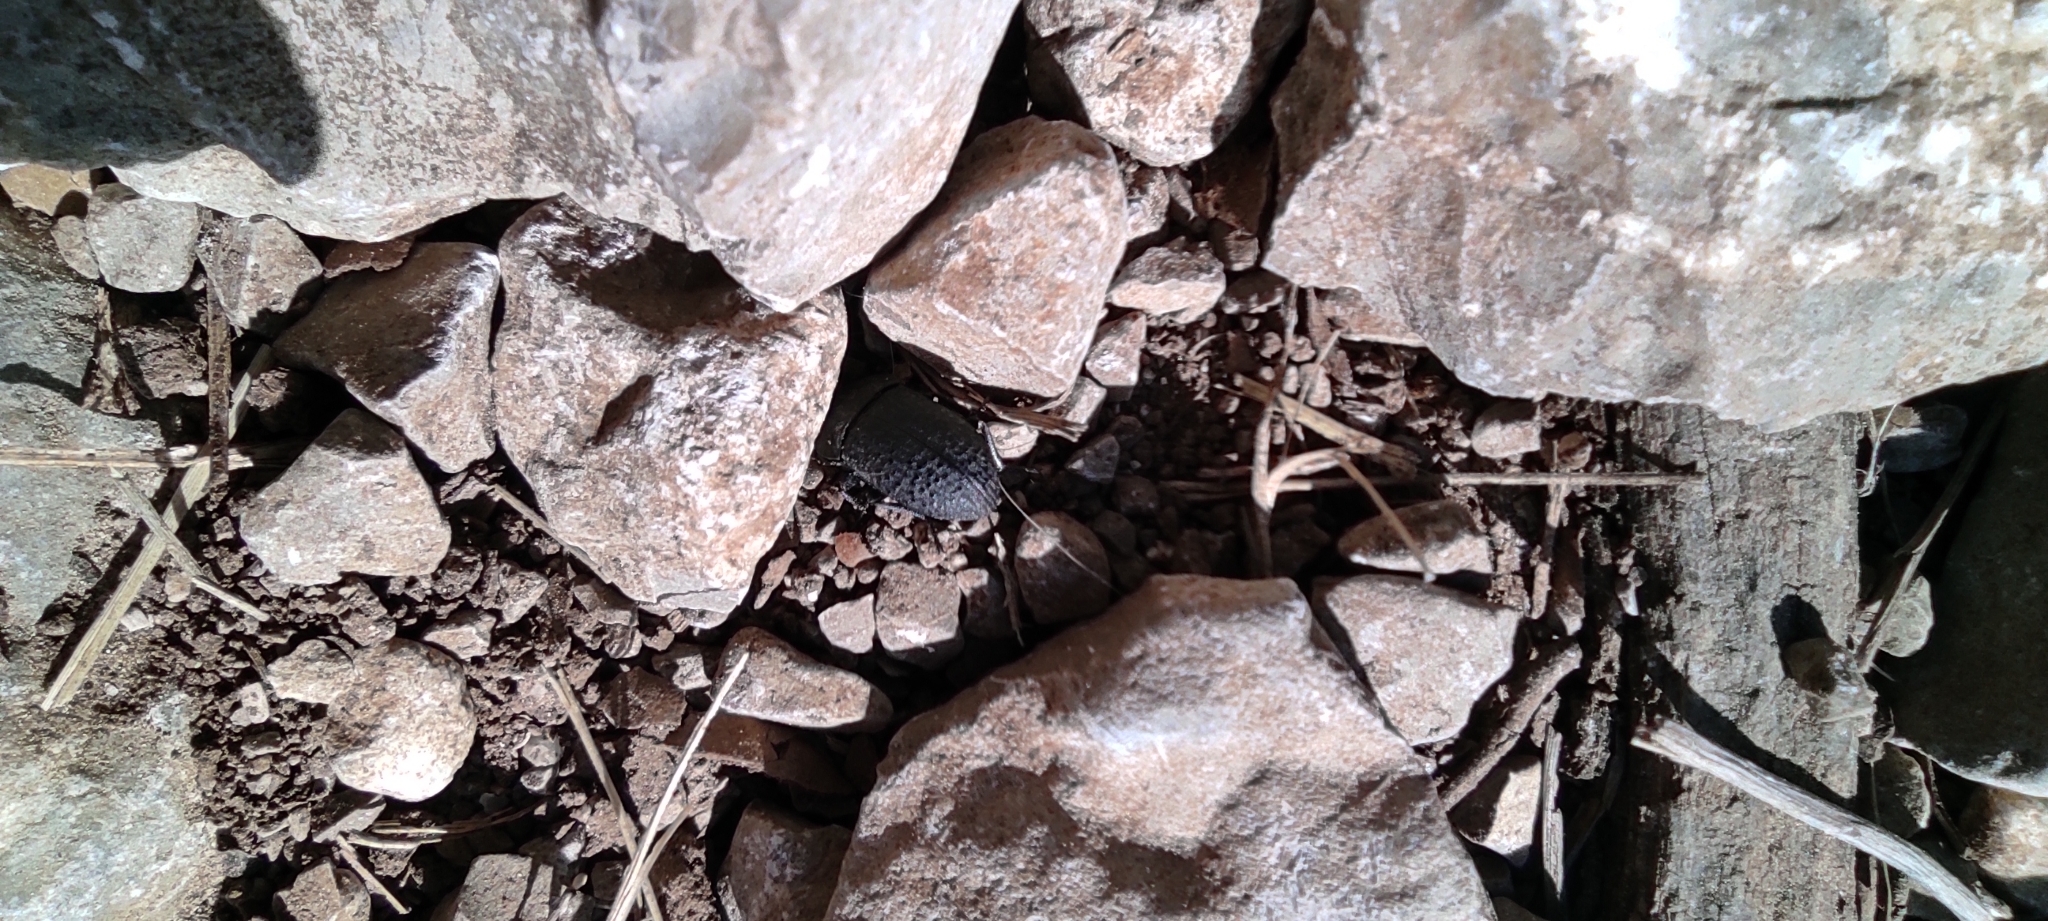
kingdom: Animalia
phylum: Arthropoda
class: Insecta
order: Coleoptera
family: Tenebrionidae
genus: Opatrum
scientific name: Opatrum sabulosum
